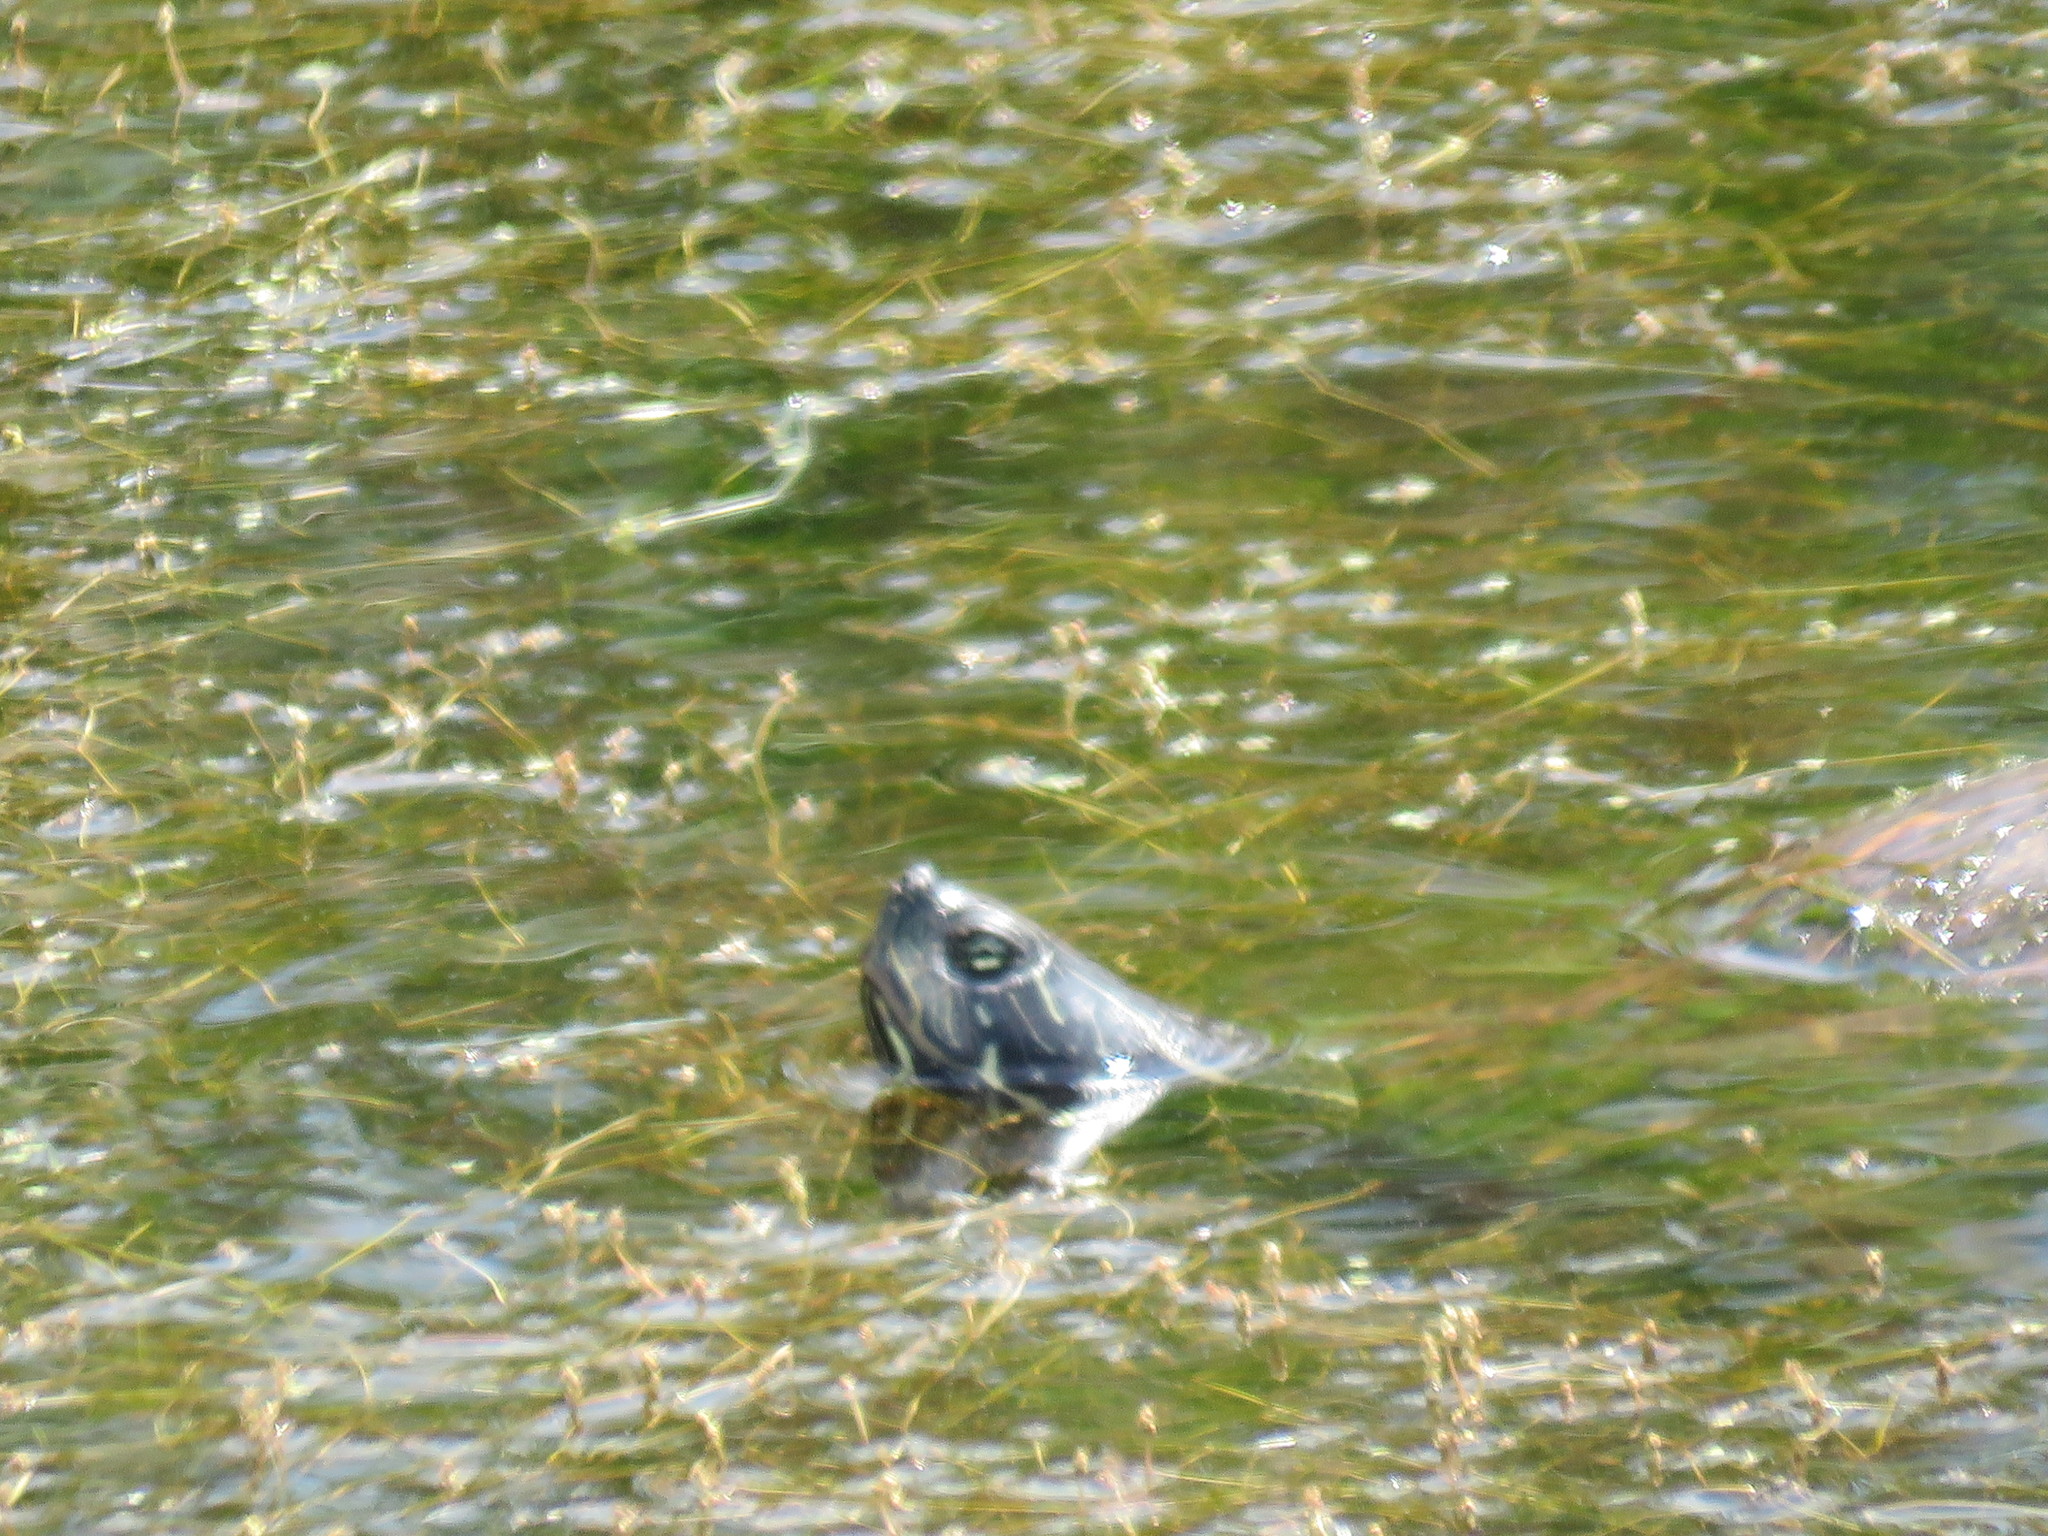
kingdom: Animalia
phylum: Chordata
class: Testudines
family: Emydidae
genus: Pseudemys
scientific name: Pseudemys concinna
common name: Eastern river cooter
